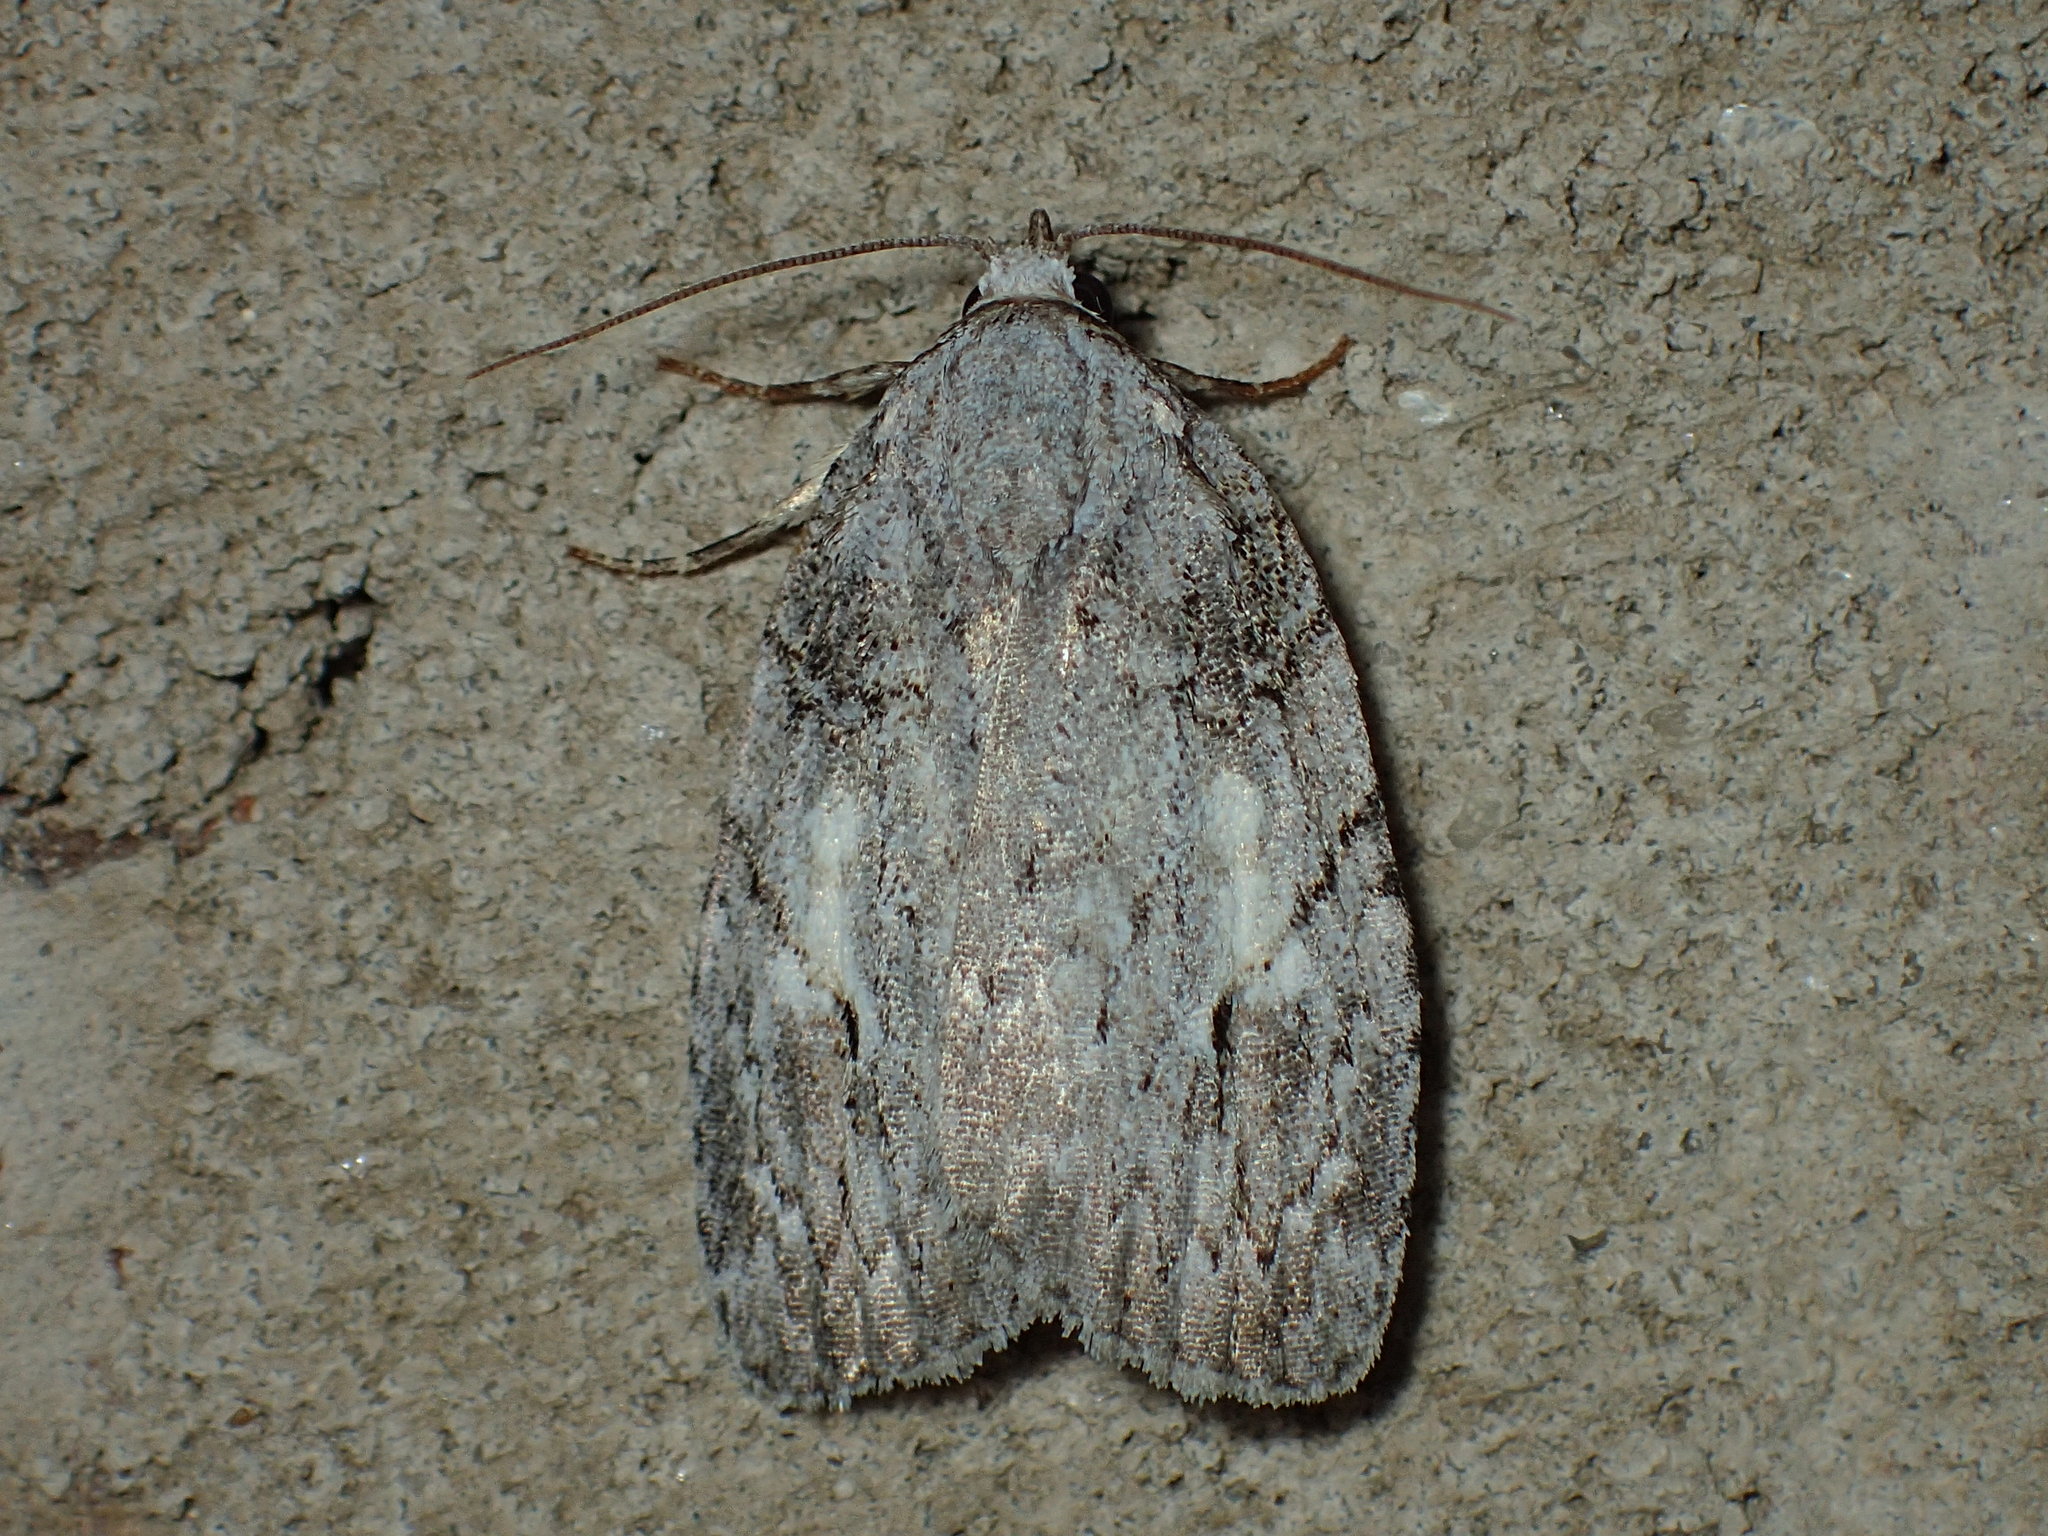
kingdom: Animalia
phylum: Arthropoda
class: Insecta
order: Lepidoptera
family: Noctuidae
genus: Balsa
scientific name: Balsa labecula
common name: White-blotched balsa moth
